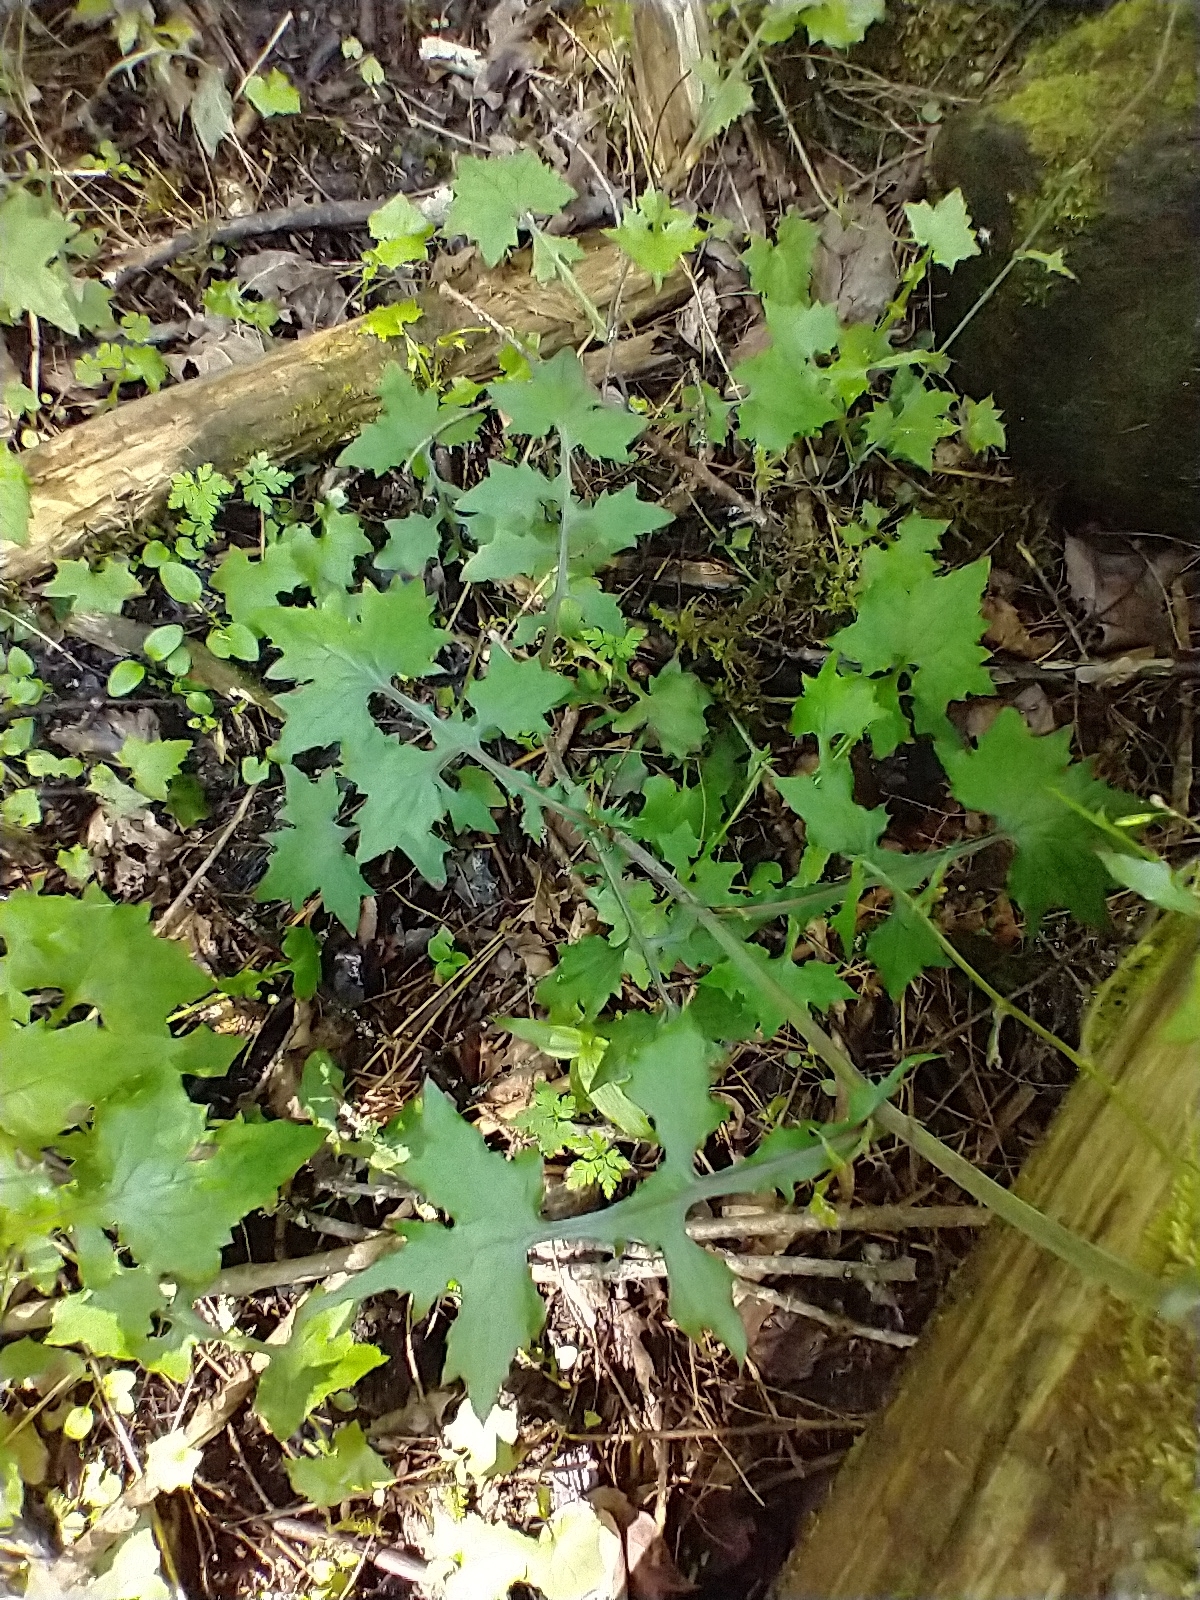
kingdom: Plantae
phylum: Tracheophyta
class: Magnoliopsida
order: Asterales
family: Asteraceae
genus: Mycelis
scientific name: Mycelis muralis
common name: Wall lettuce
